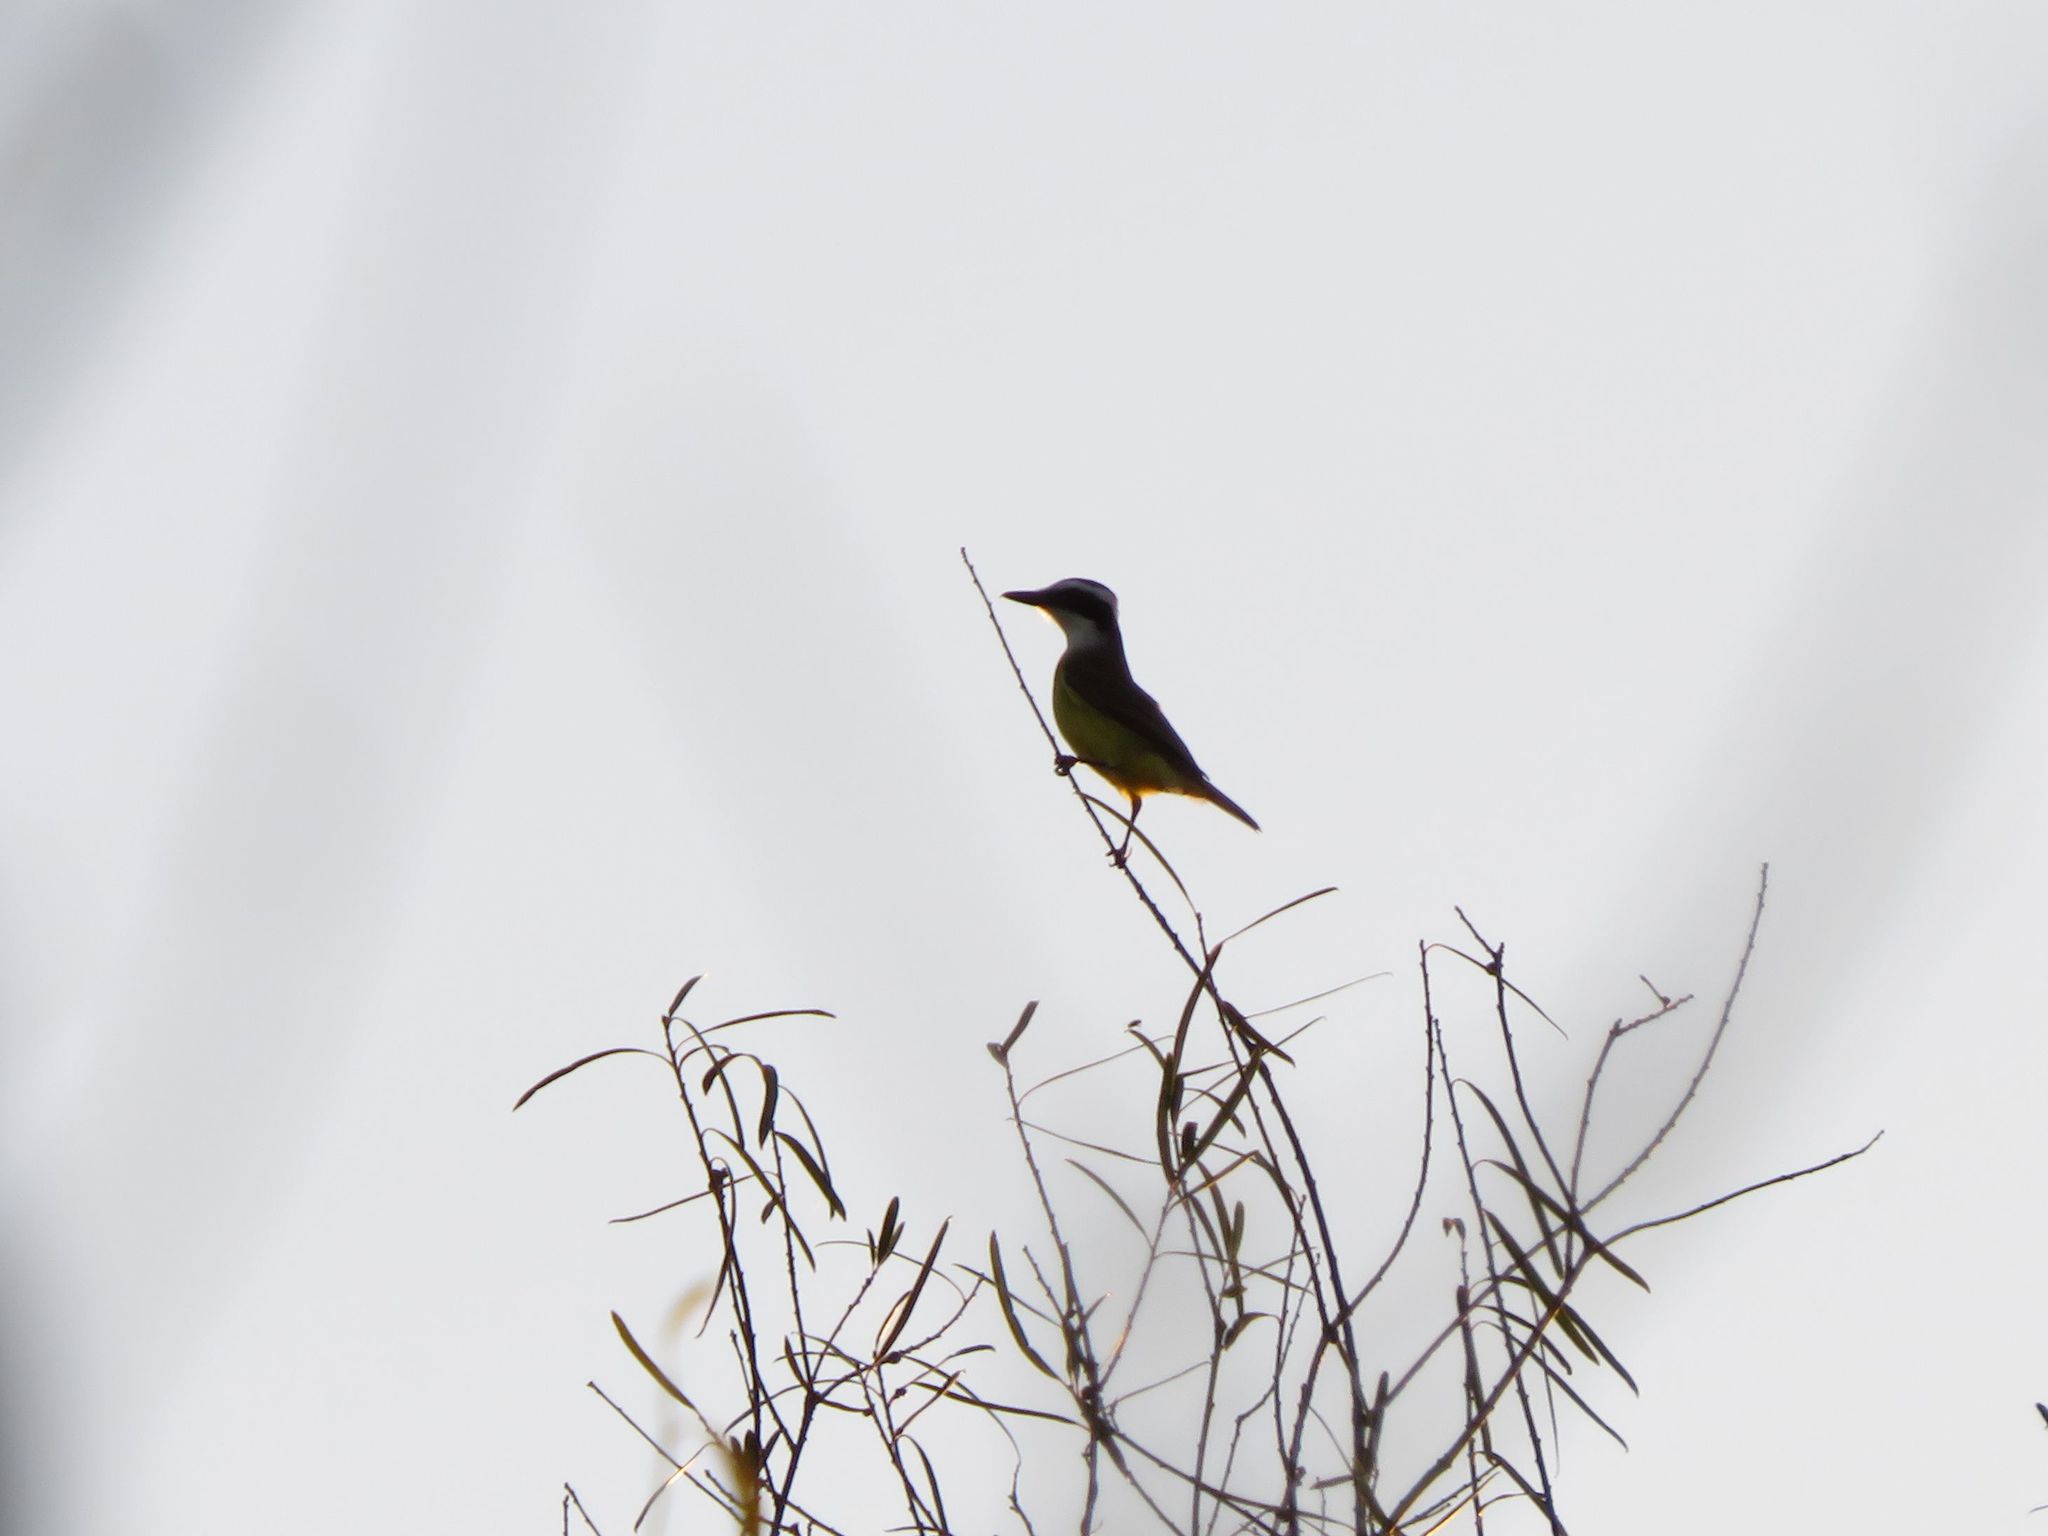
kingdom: Animalia
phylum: Chordata
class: Aves
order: Passeriformes
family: Tyrannidae
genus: Pitangus
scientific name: Pitangus sulphuratus
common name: Great kiskadee
